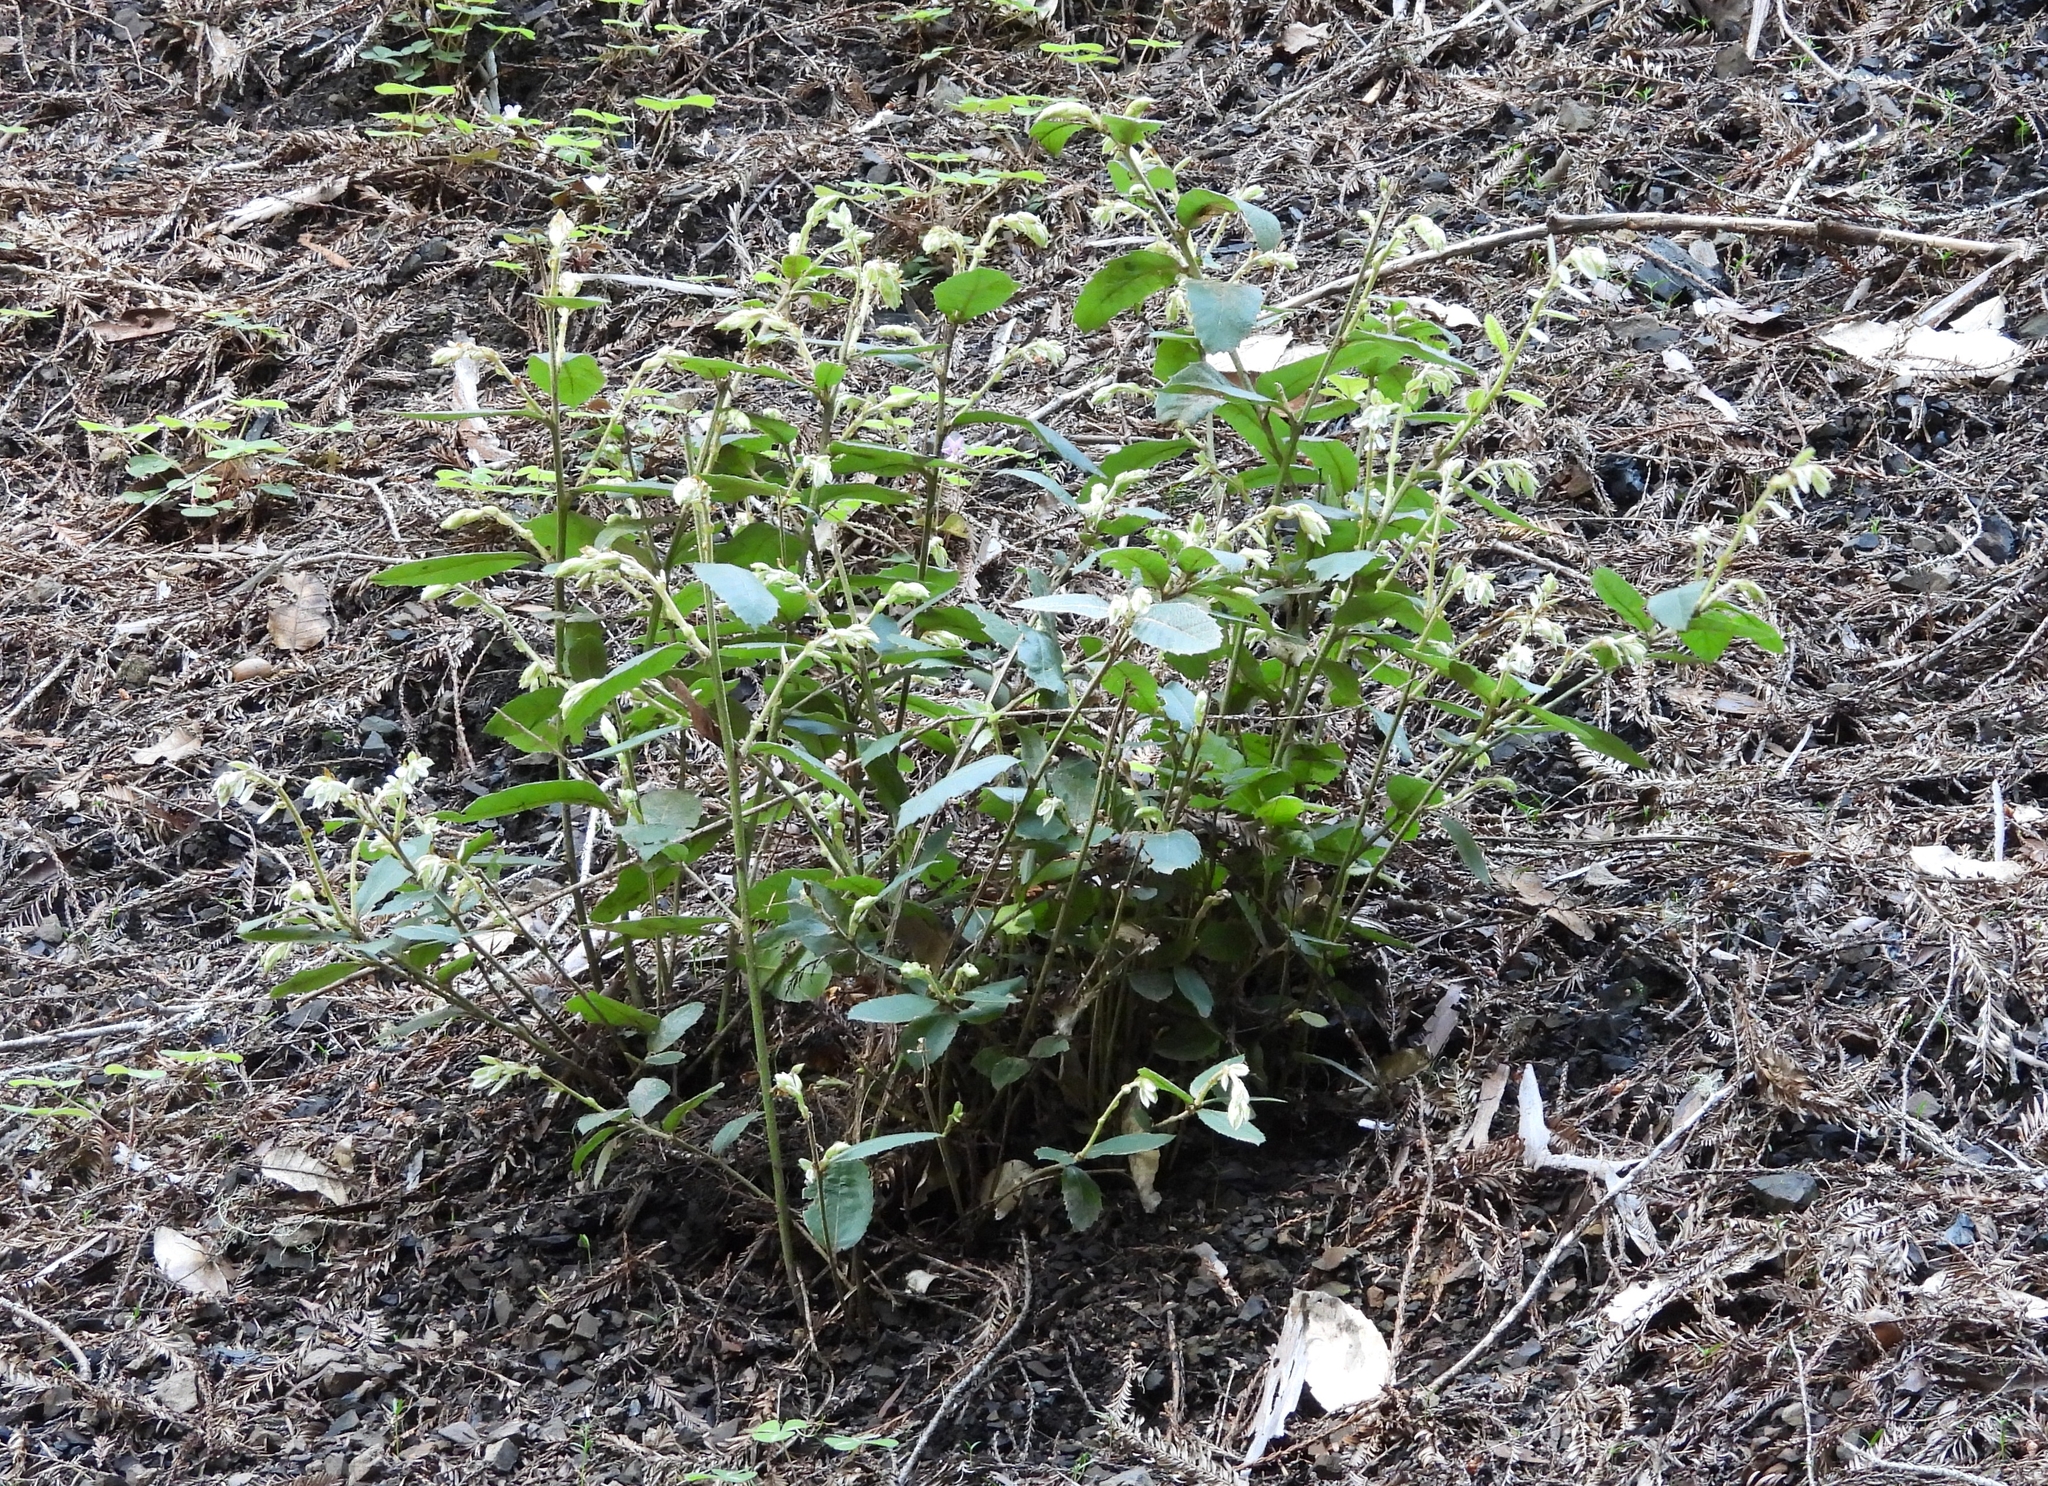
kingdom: Plantae
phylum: Tracheophyta
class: Magnoliopsida
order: Fagales
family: Fagaceae
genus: Notholithocarpus
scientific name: Notholithocarpus densiflorus
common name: Tan bark oak
